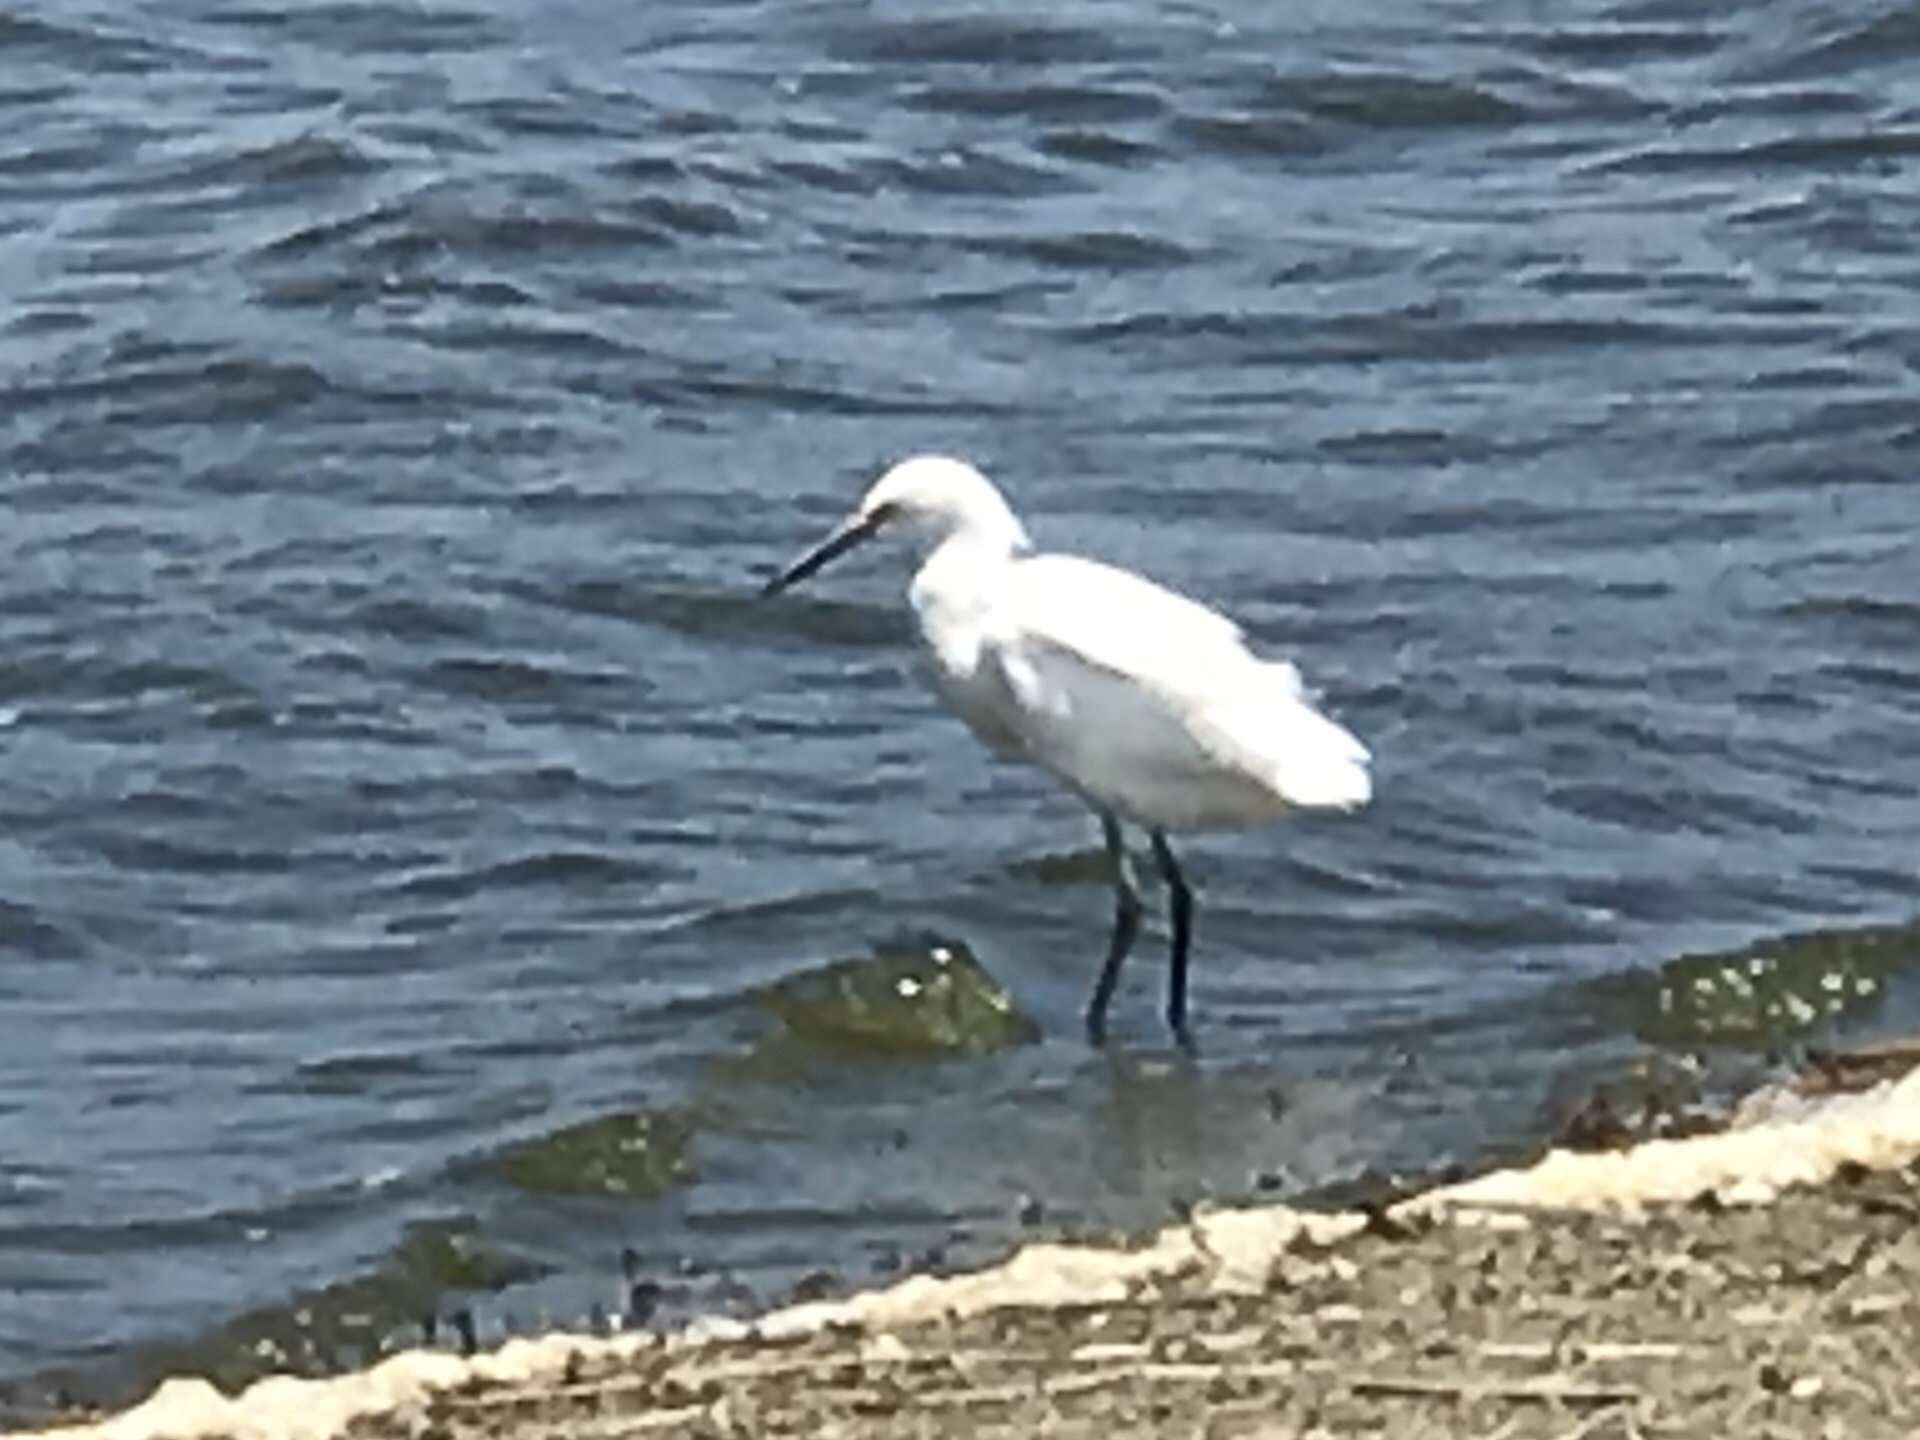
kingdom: Animalia
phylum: Chordata
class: Aves
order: Pelecaniformes
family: Ardeidae
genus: Egretta
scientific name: Egretta thula
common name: Snowy egret
